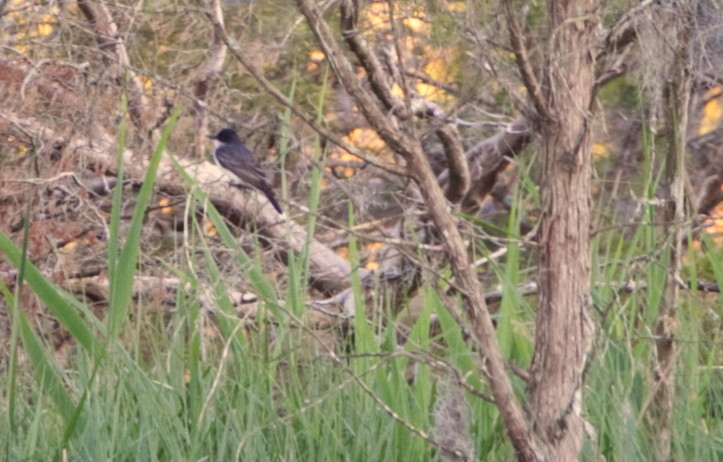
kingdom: Animalia
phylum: Chordata
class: Aves
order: Passeriformes
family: Tyrannidae
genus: Tyrannus
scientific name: Tyrannus tyrannus
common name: Eastern kingbird
